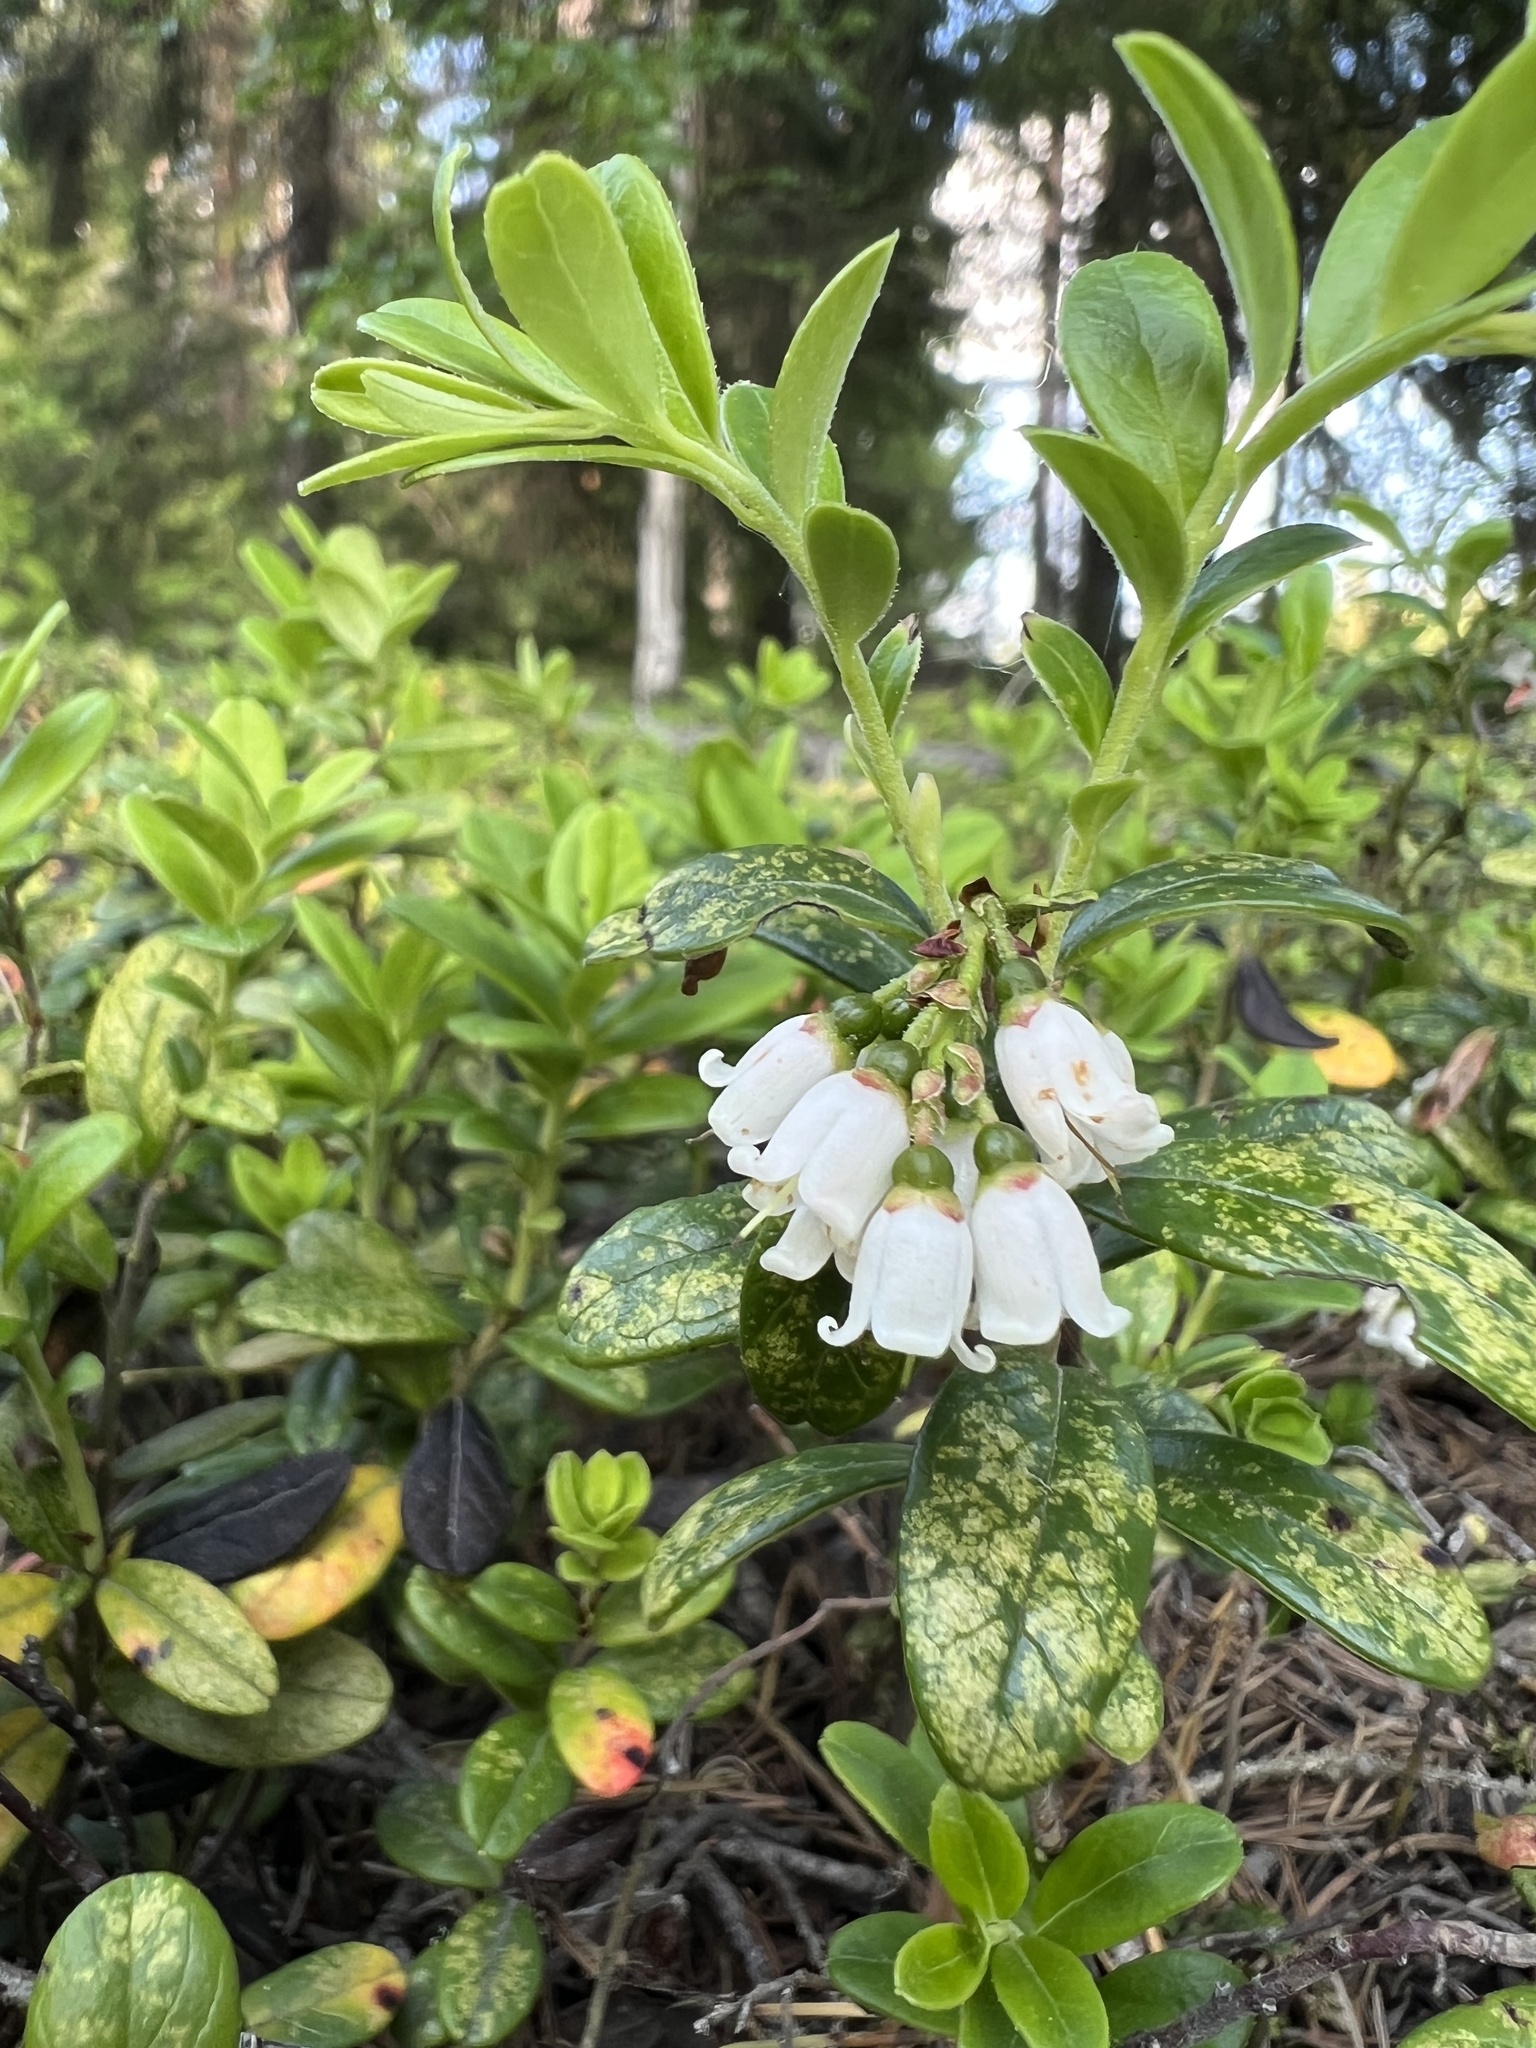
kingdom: Plantae
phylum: Tracheophyta
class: Magnoliopsida
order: Ericales
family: Ericaceae
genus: Vaccinium
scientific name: Vaccinium vitis-idaea
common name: Cowberry
